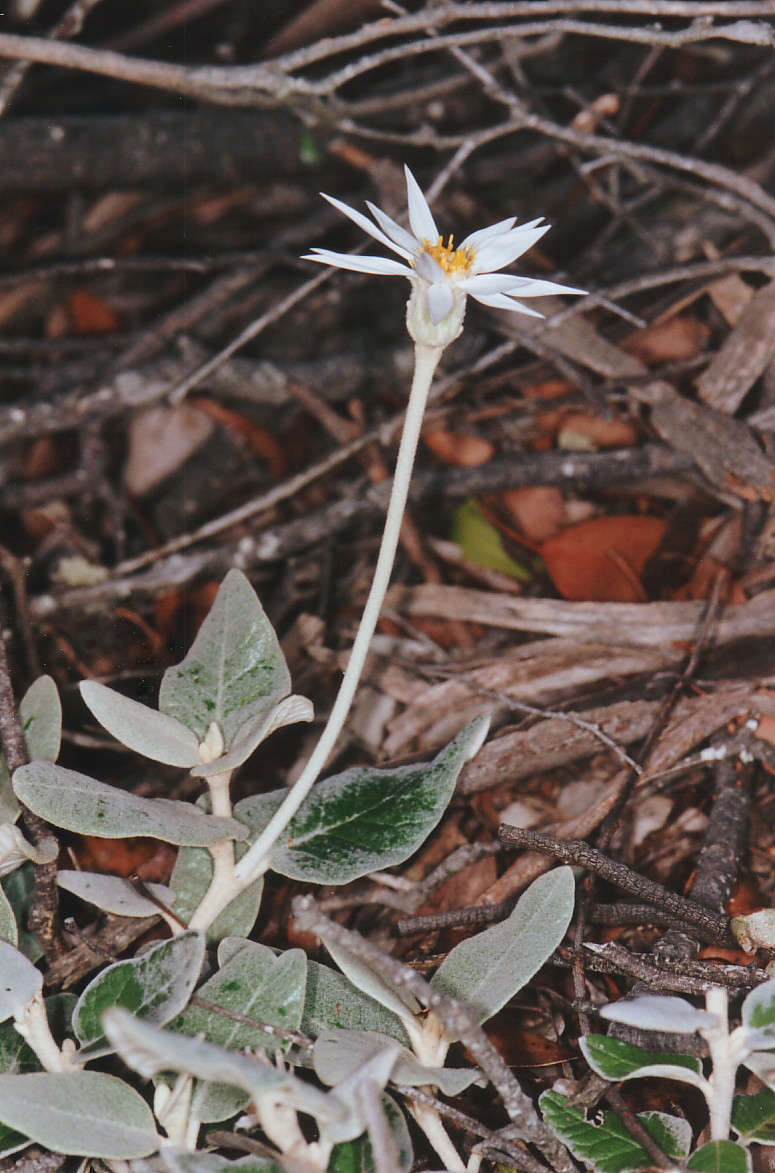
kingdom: Plantae
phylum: Tracheophyta
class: Magnoliopsida
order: Asterales
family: Asteraceae
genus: Olearia
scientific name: Olearia pannosa
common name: Velvet daisybush
